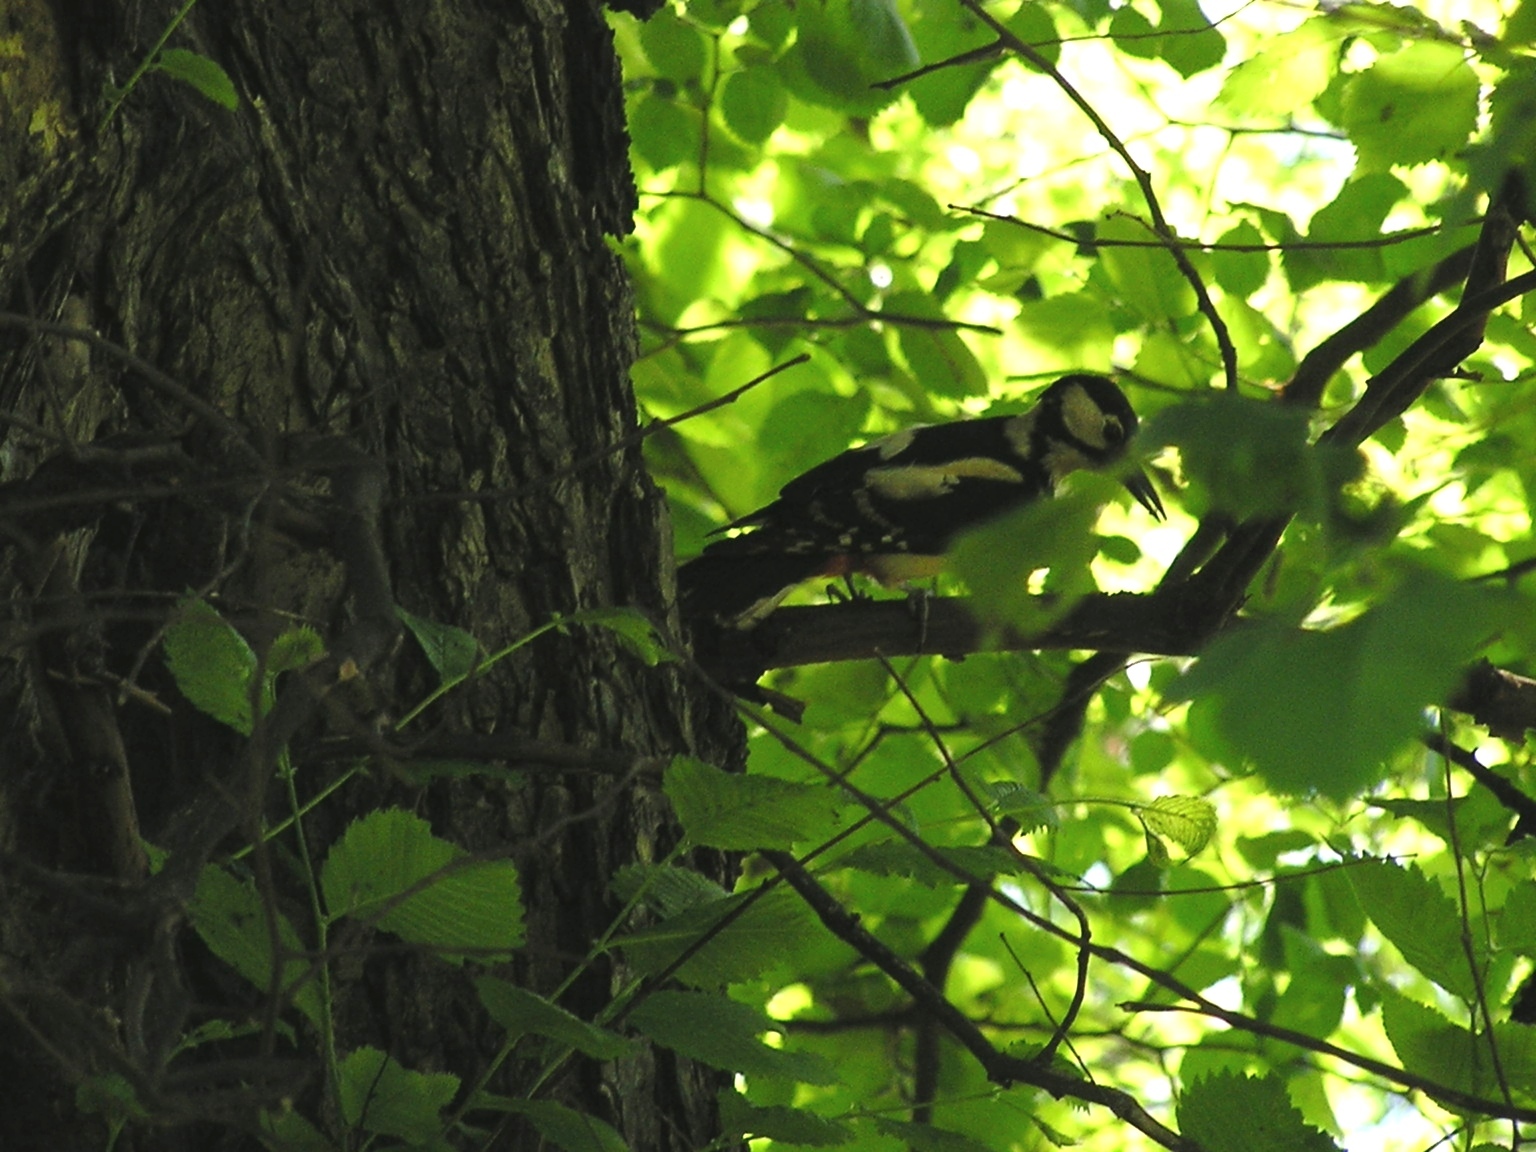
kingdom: Animalia
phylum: Chordata
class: Aves
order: Piciformes
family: Picidae
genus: Dendrocopos
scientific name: Dendrocopos major
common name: Great spotted woodpecker
